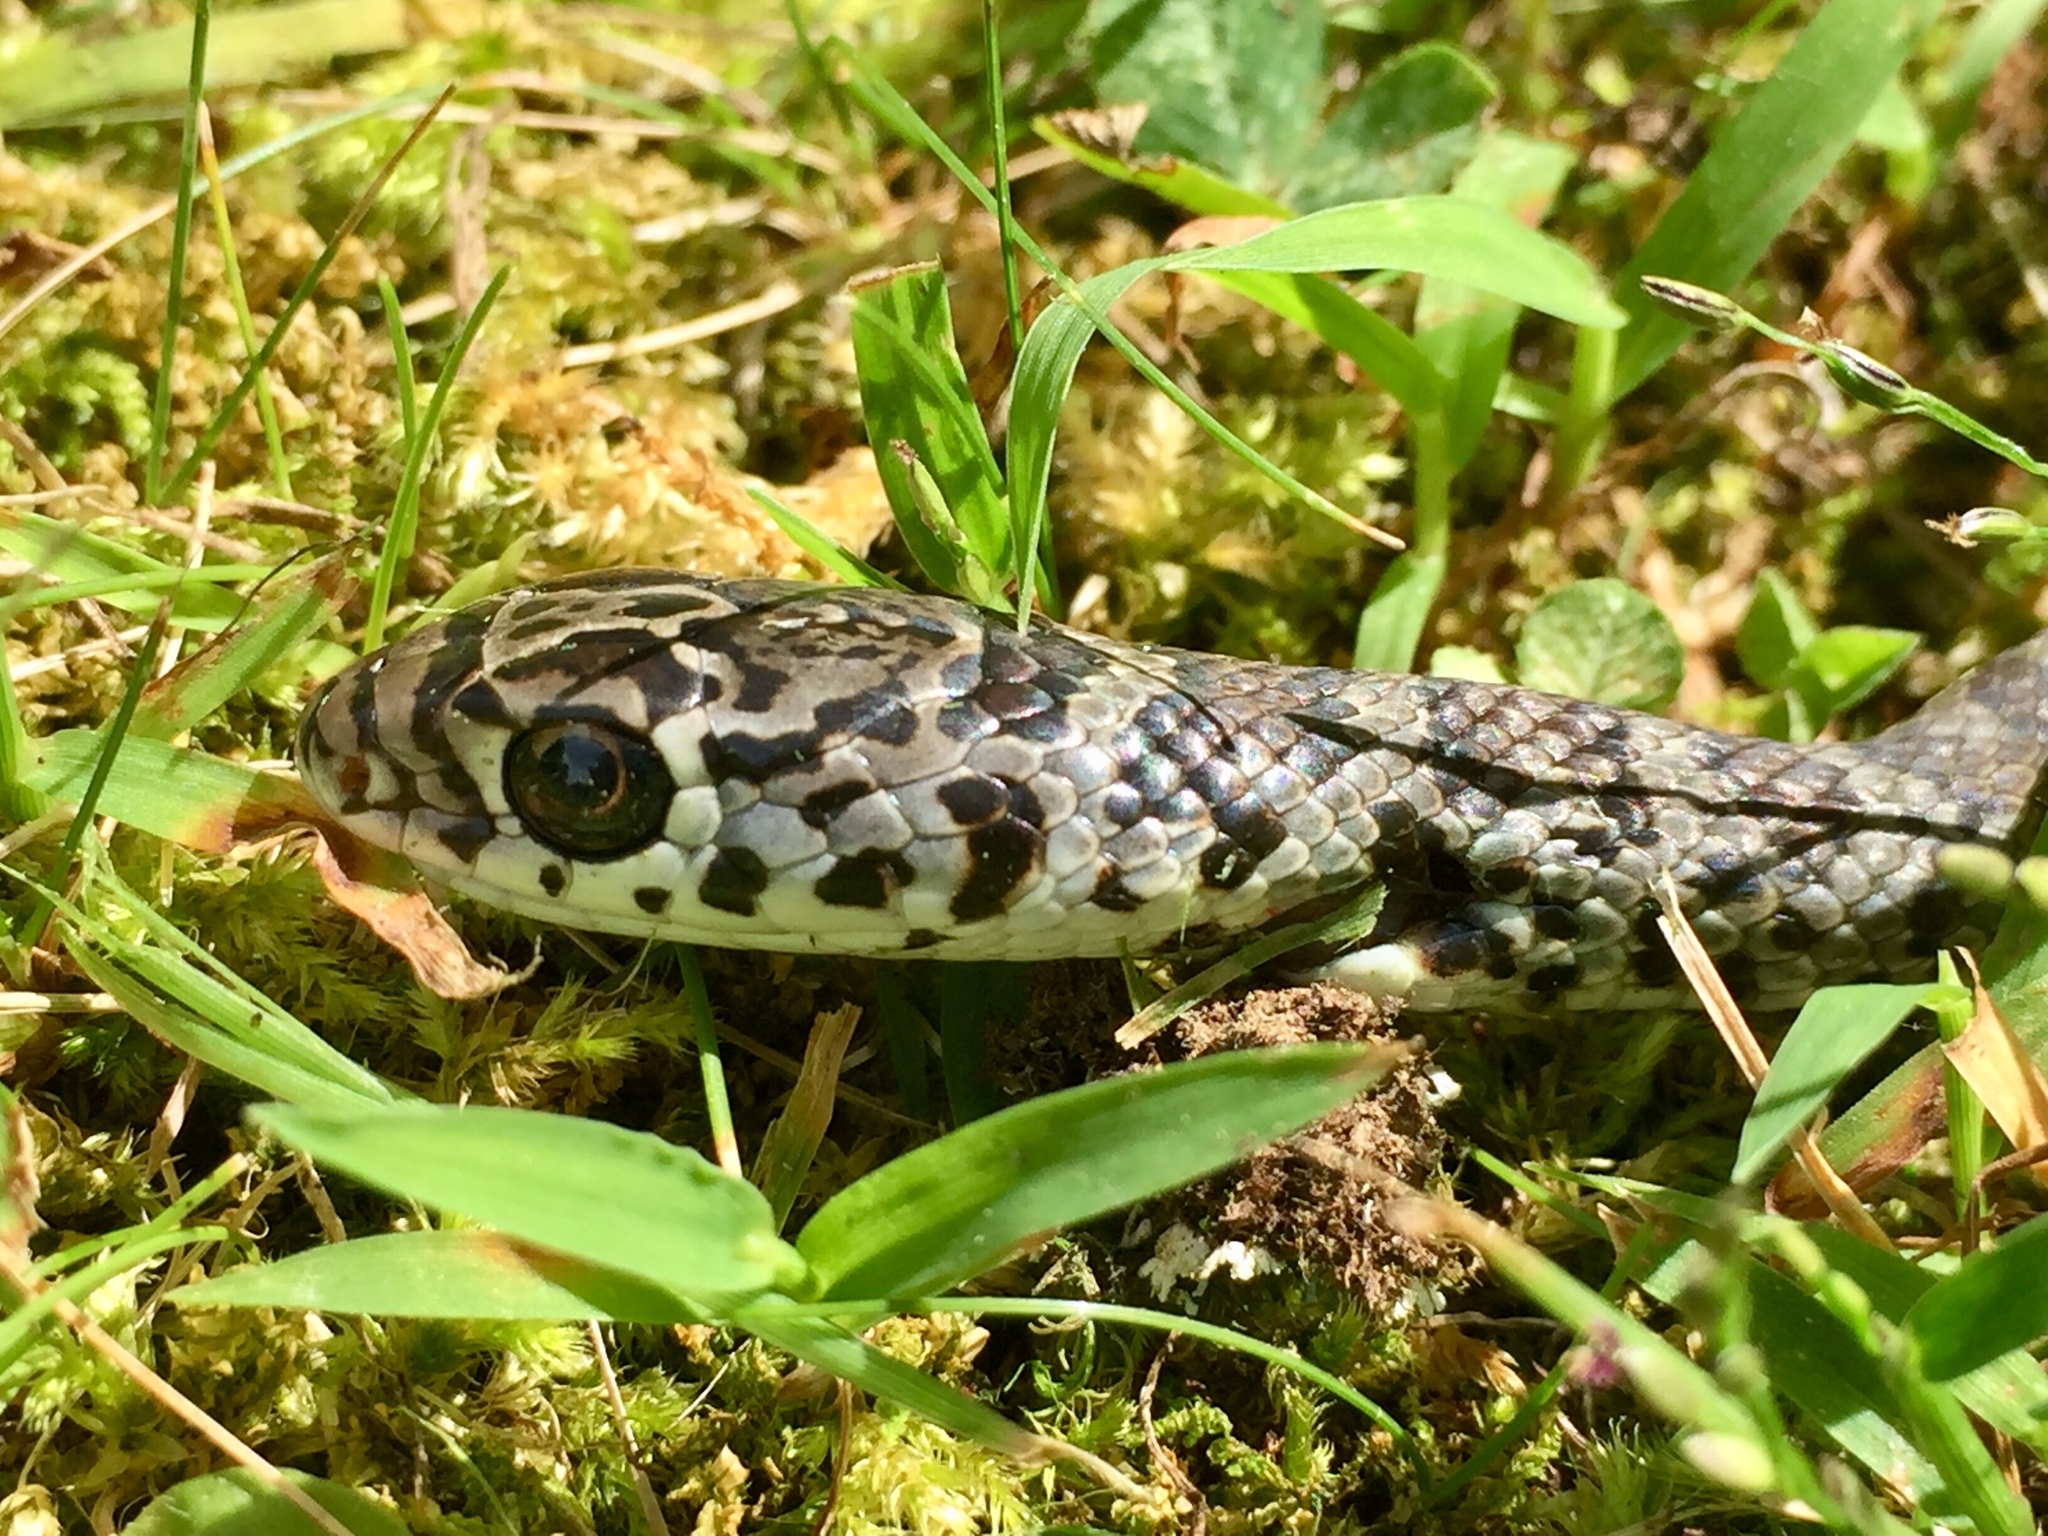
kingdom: Animalia
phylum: Chordata
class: Squamata
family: Colubridae
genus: Coluber
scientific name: Coluber constrictor
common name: Eastern racer
